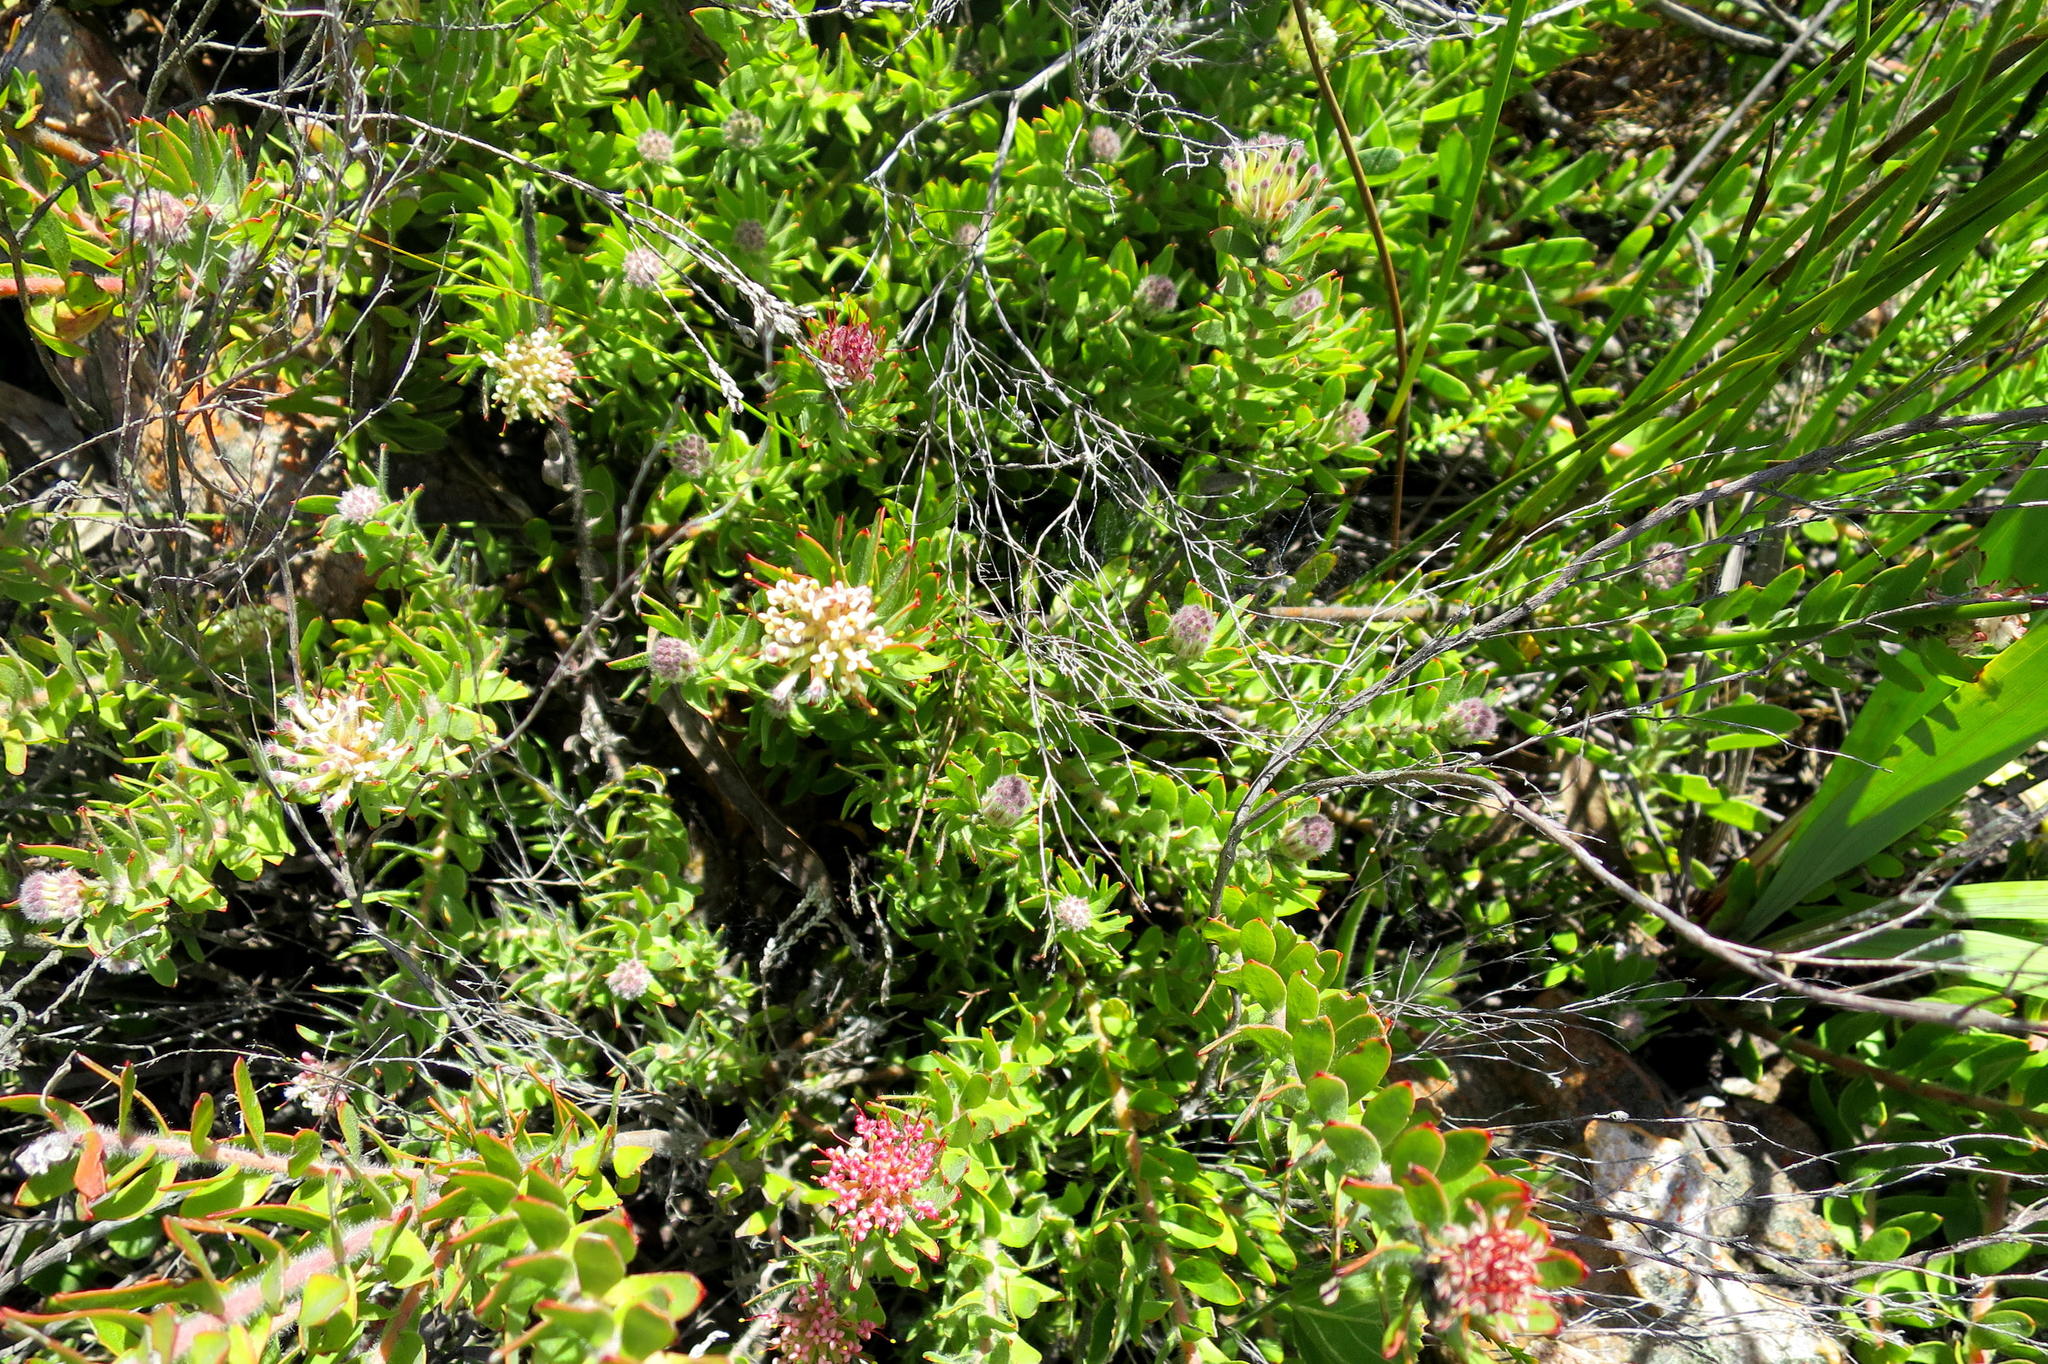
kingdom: Plantae
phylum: Tracheophyta
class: Magnoliopsida
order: Proteales
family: Proteaceae
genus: Leucospermum
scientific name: Leucospermum royenifolium
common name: Eastern pincushion
